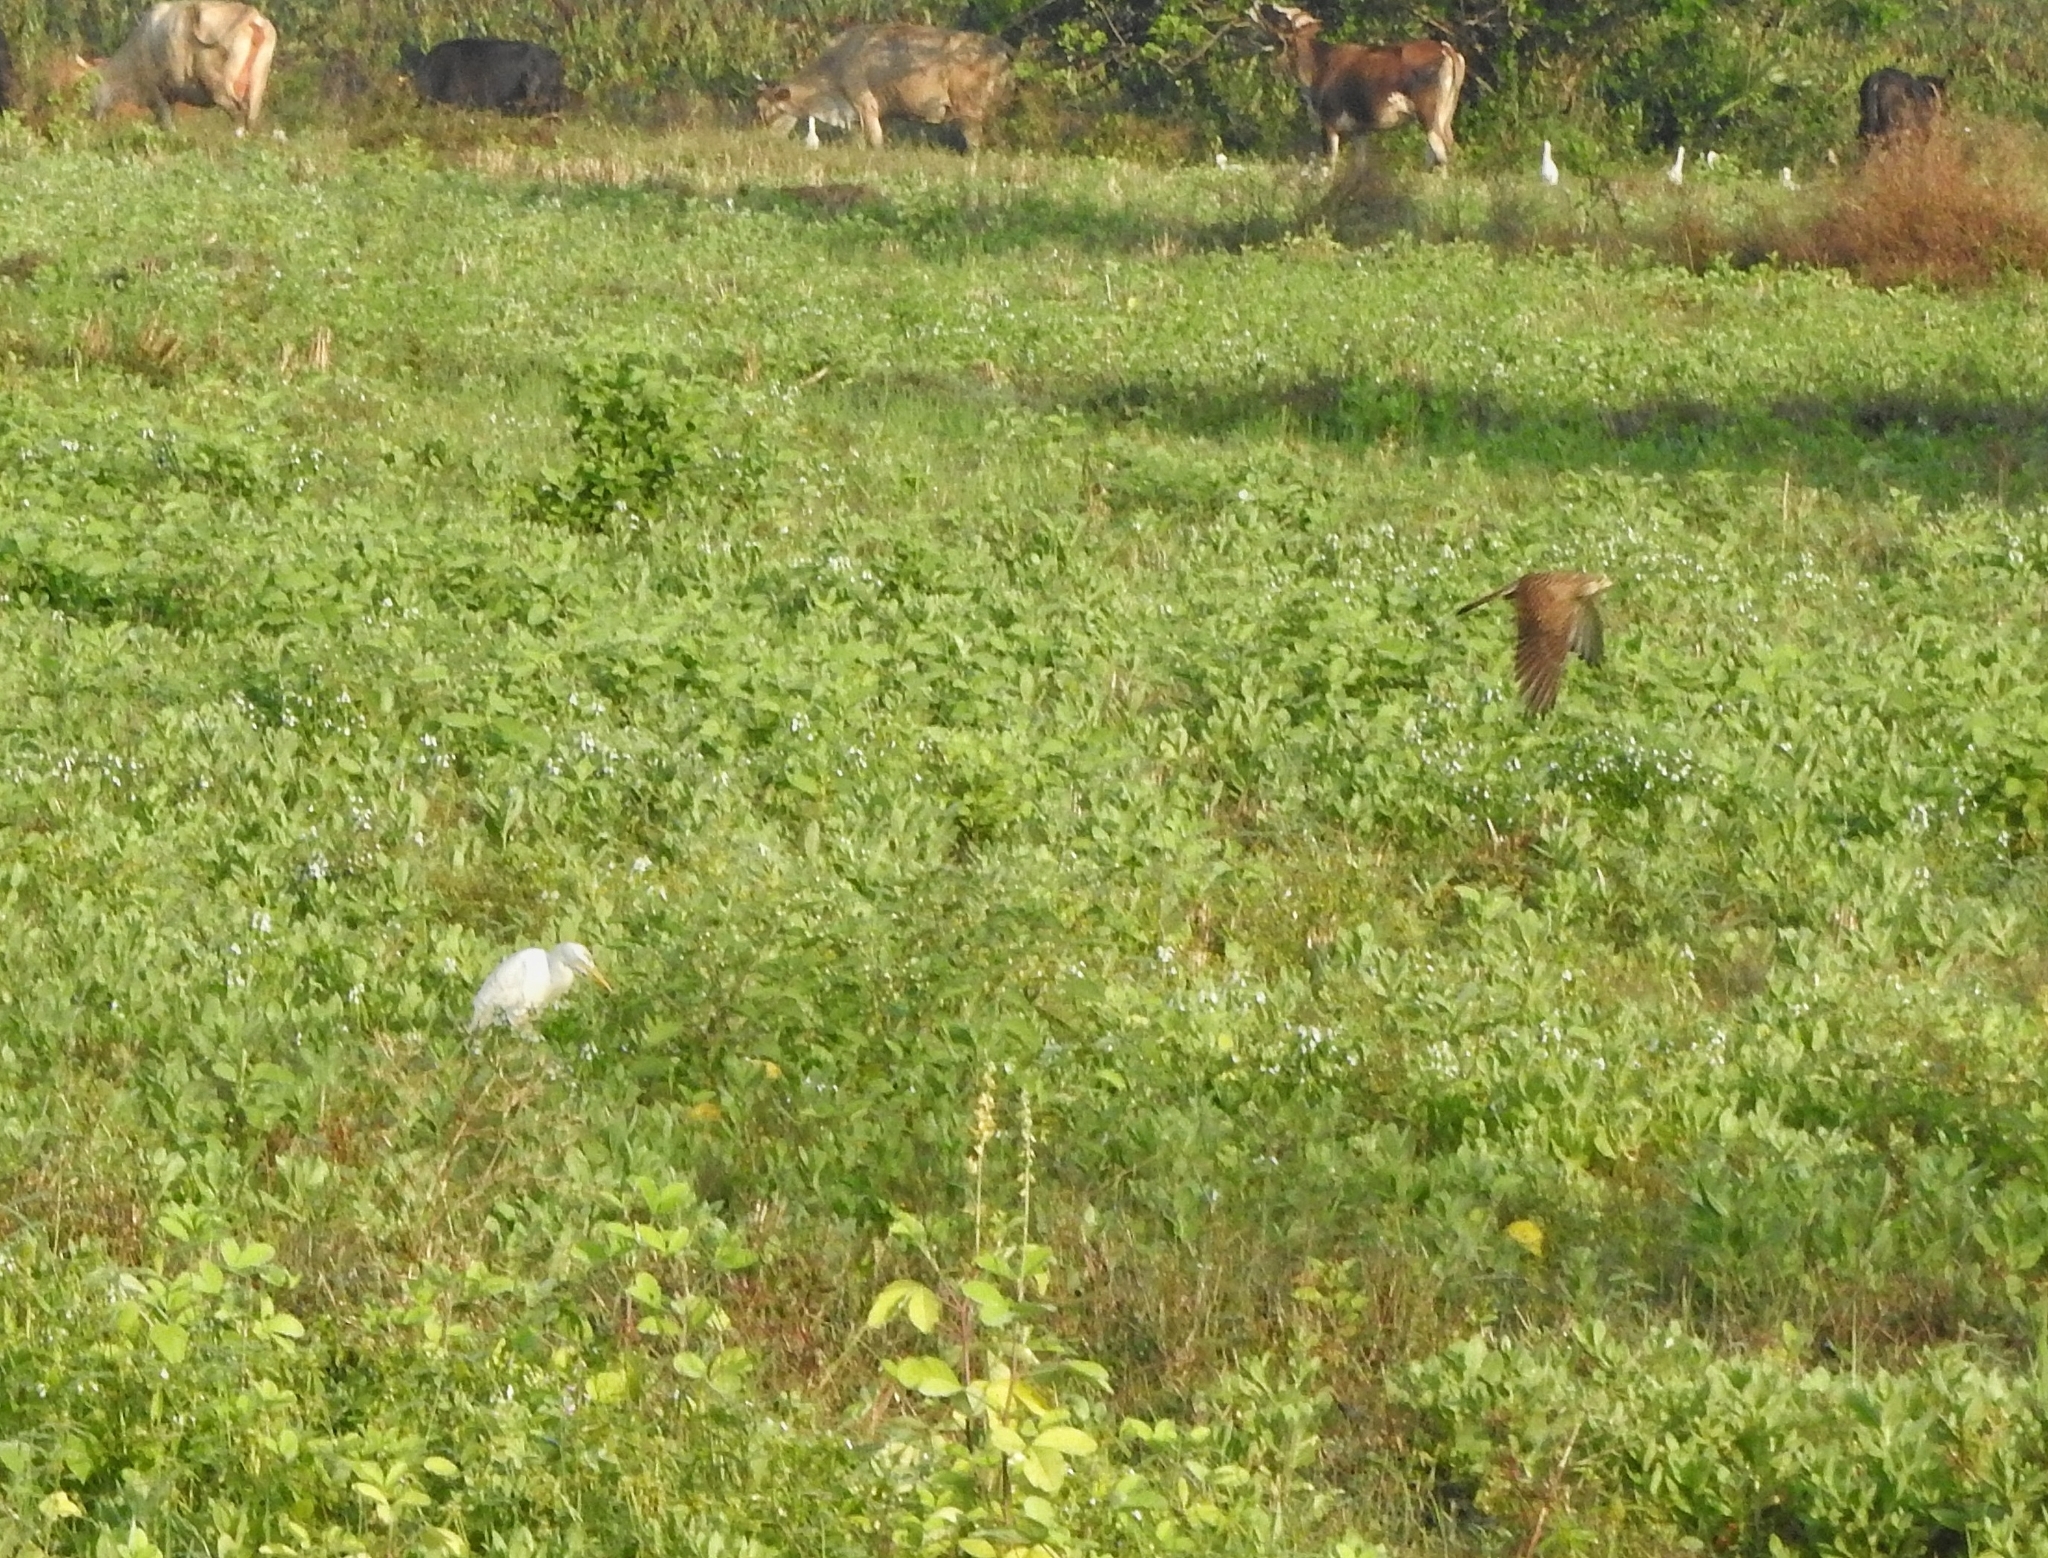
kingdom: Animalia
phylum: Chordata
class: Aves
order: Pelecaniformes
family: Ardeidae
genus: Bubulcus
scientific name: Bubulcus coromandus
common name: Eastern cattle egret
